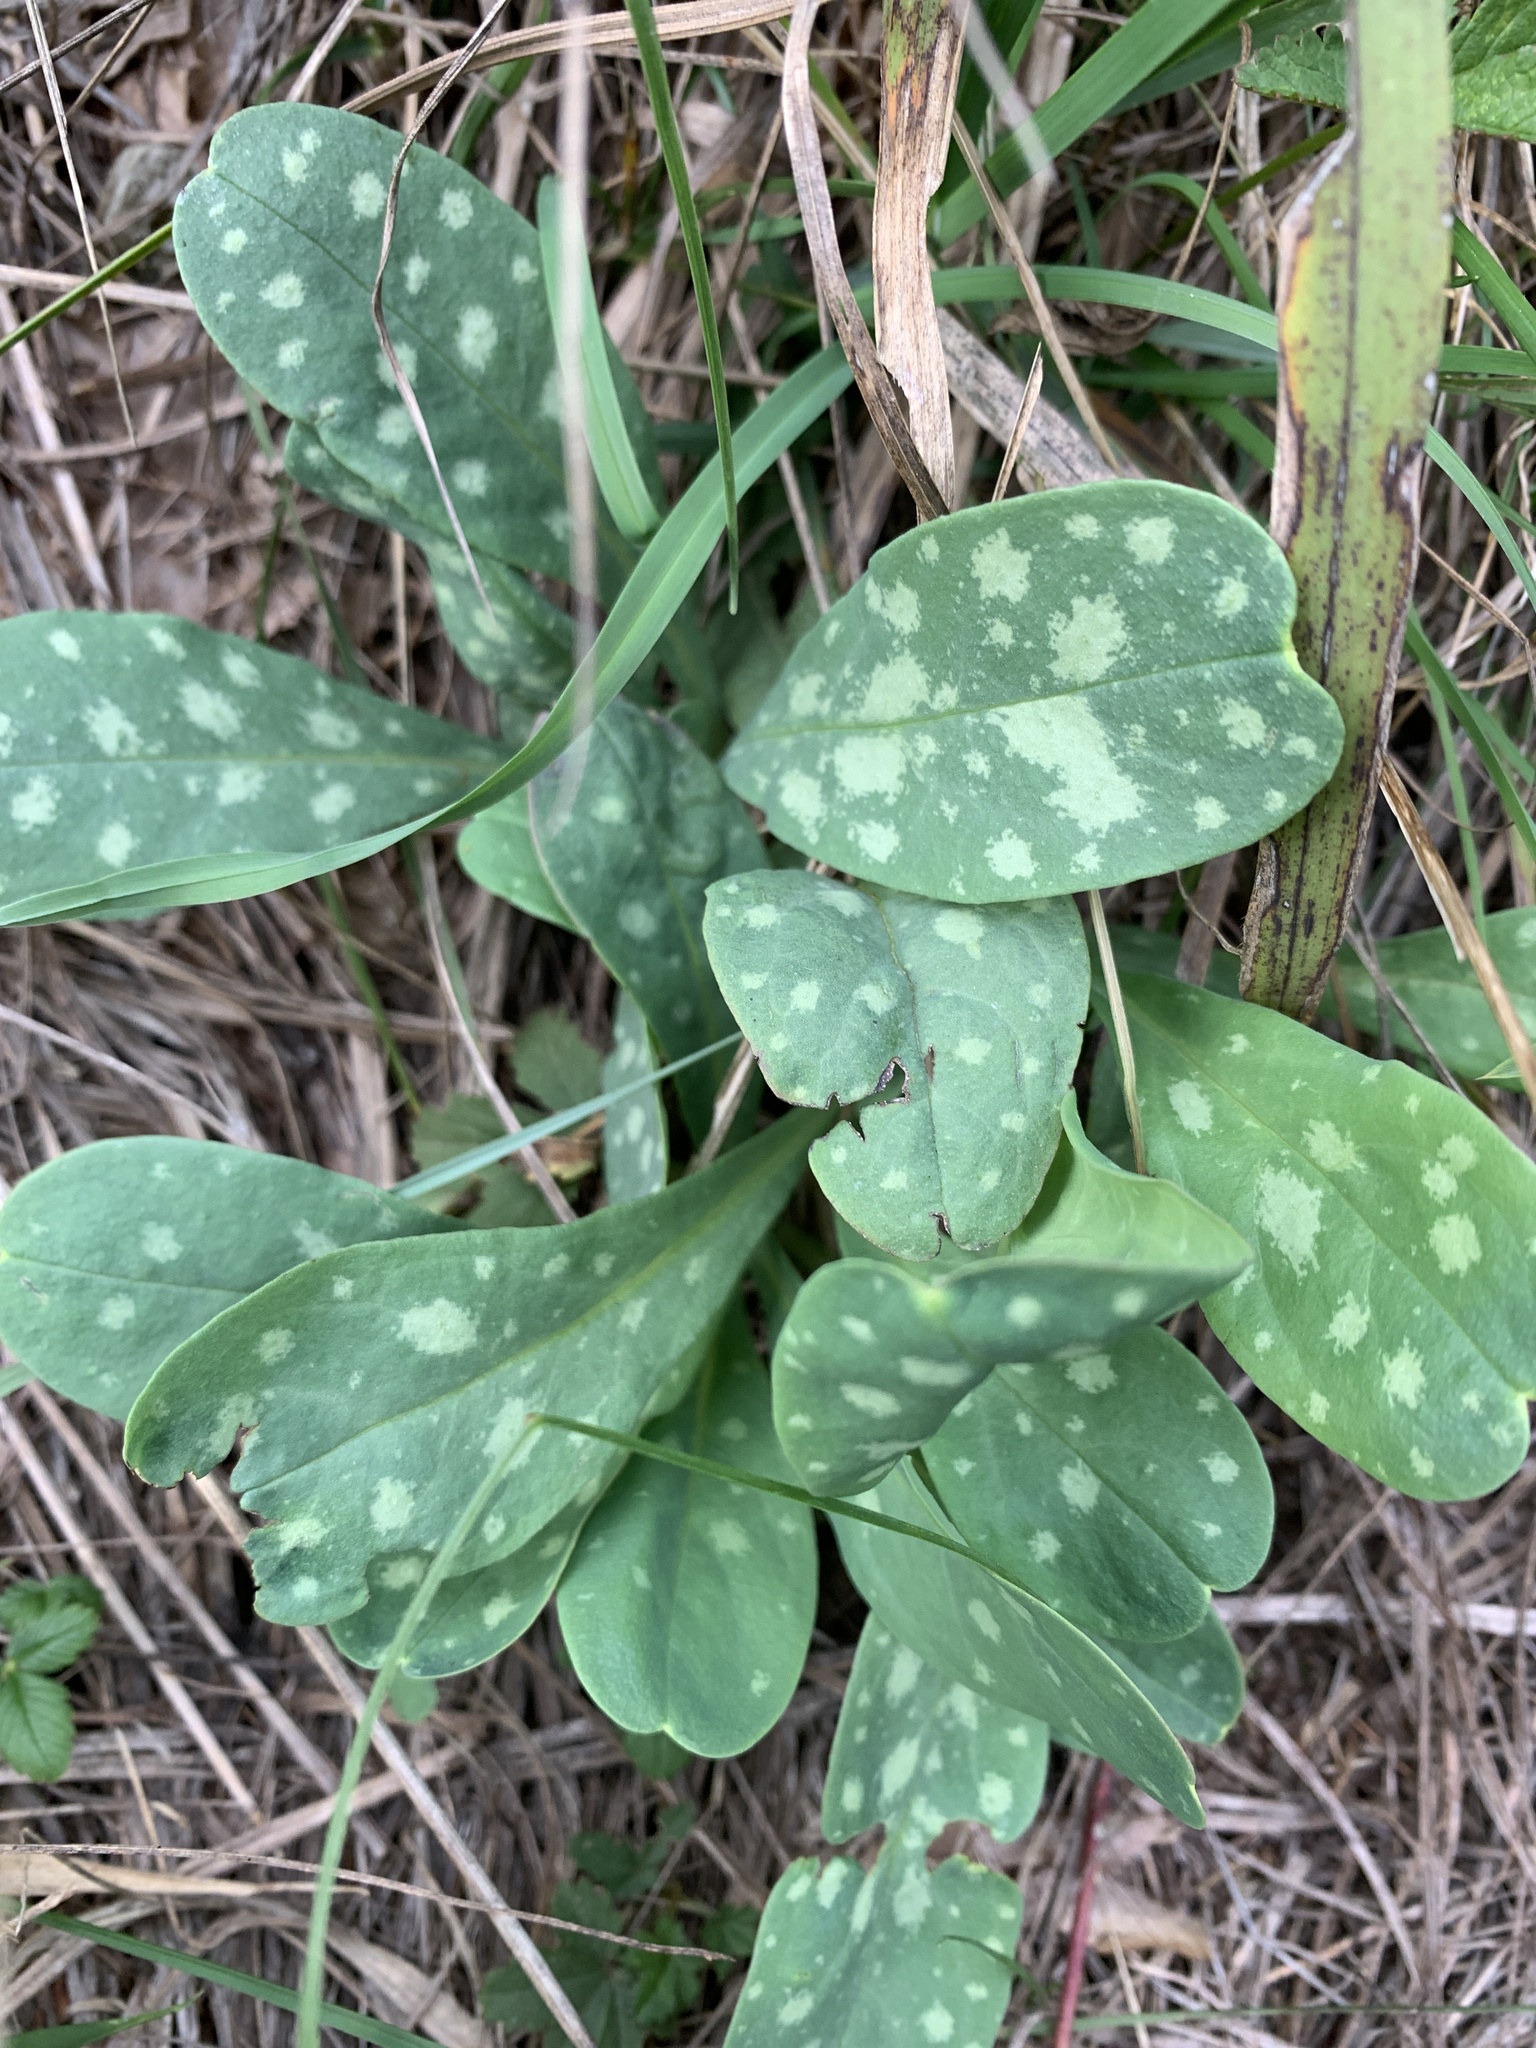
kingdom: Plantae
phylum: Tracheophyta
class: Magnoliopsida
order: Boraginales
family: Boraginaceae
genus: Pulmonaria
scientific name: Pulmonaria officinalis
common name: Lungwort
